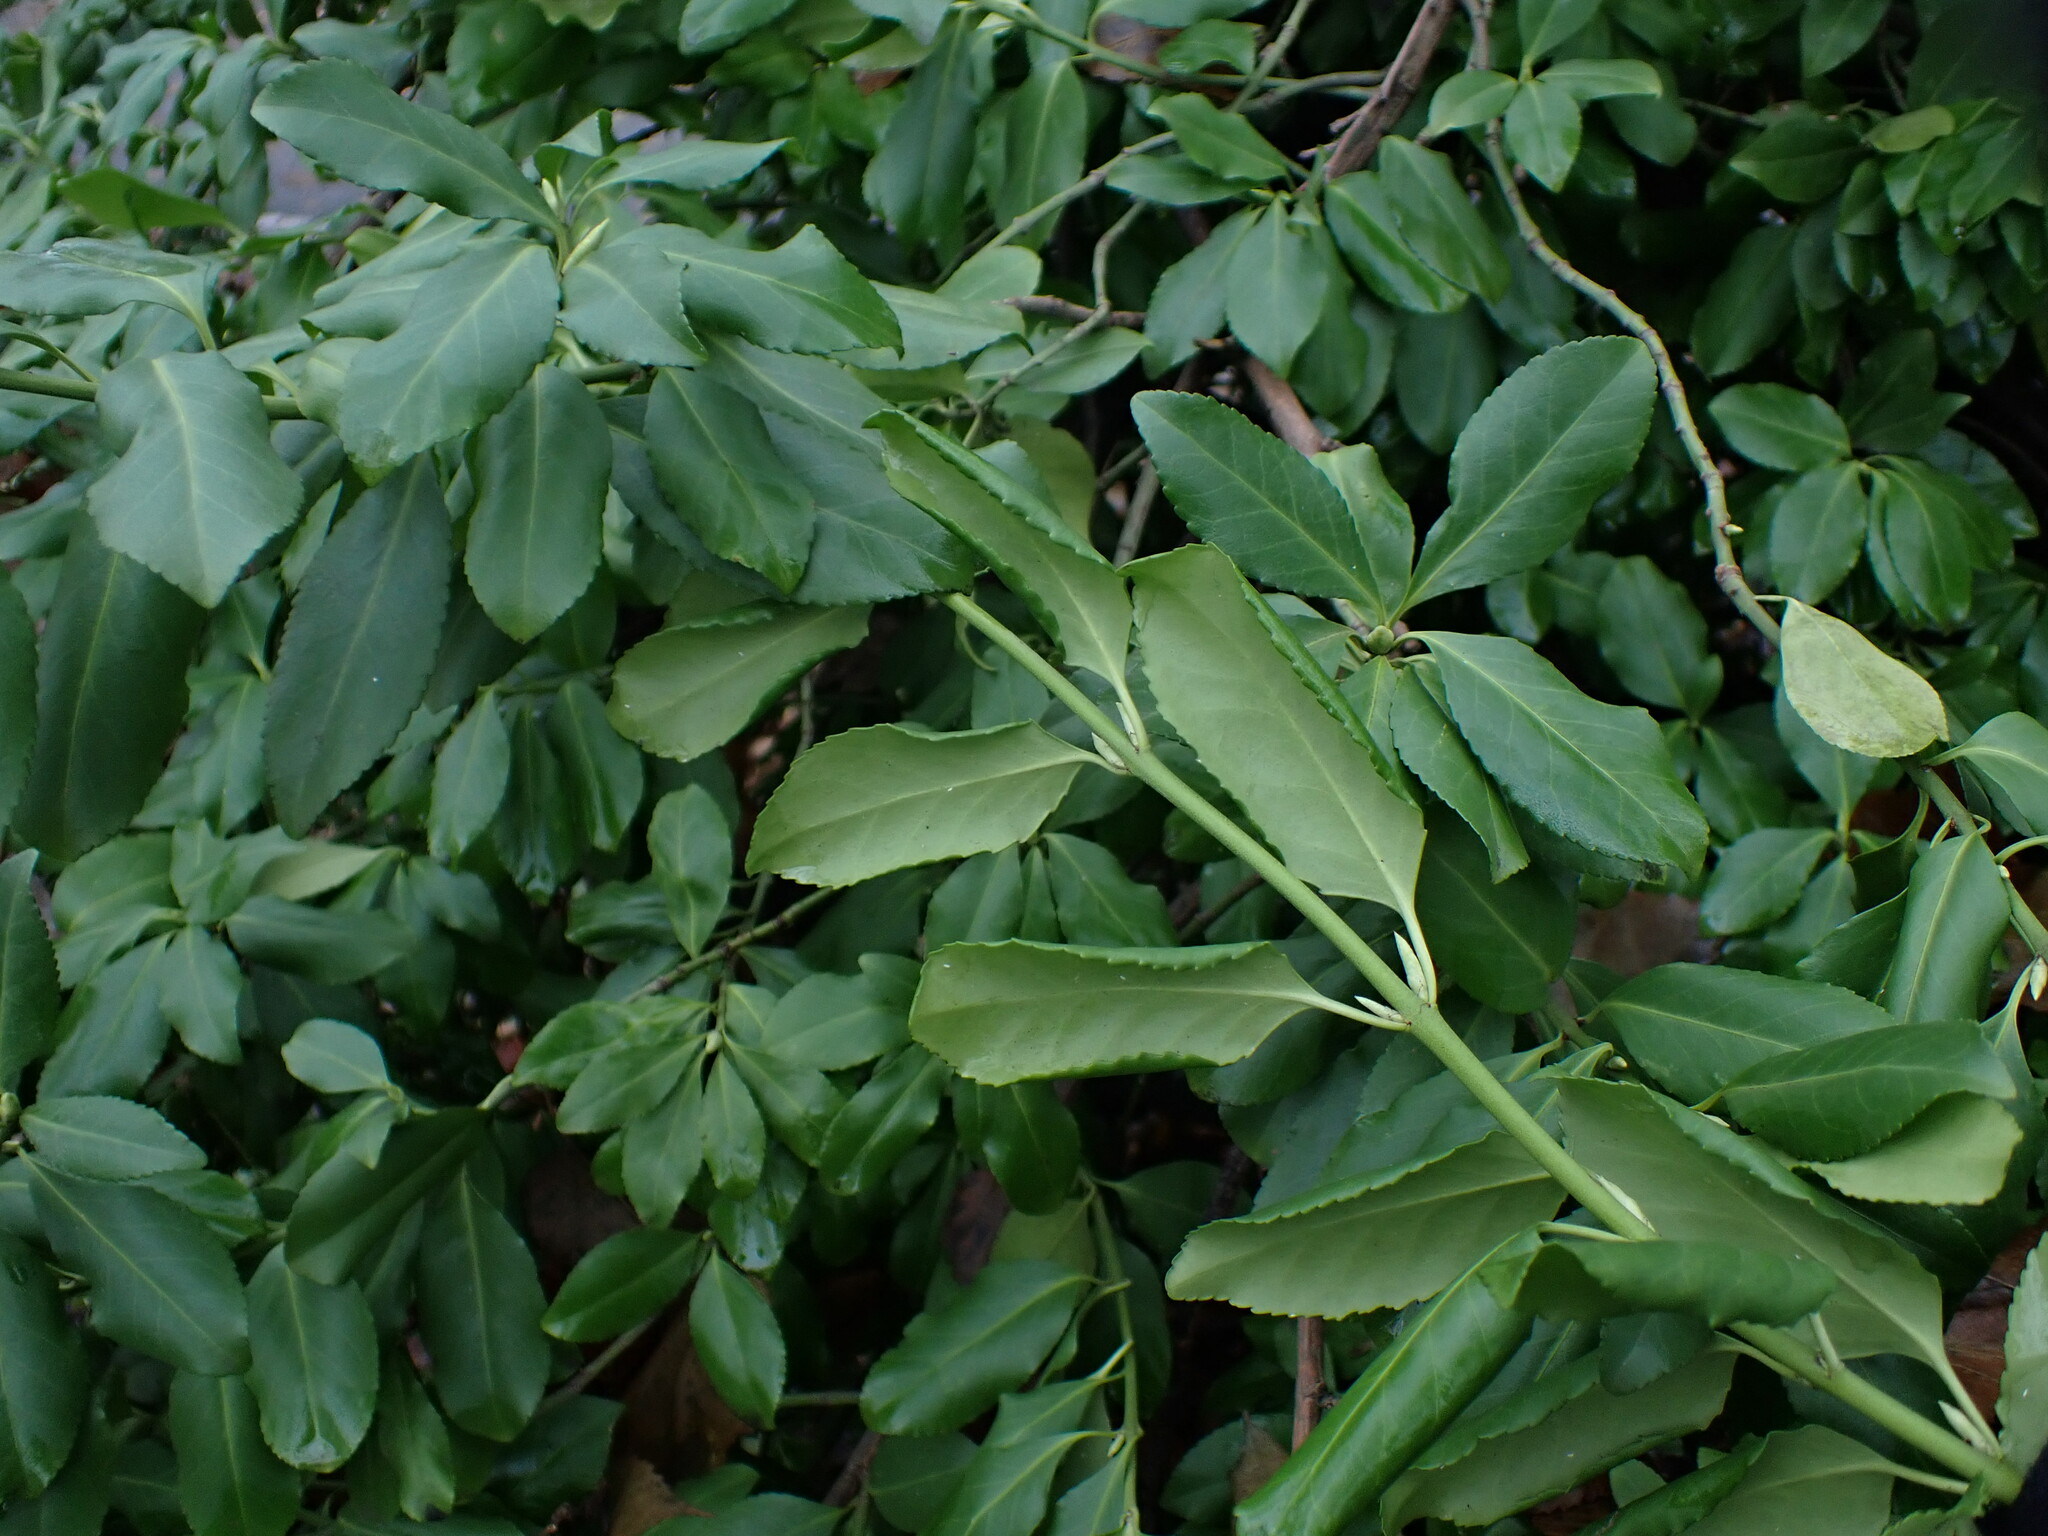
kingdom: Plantae
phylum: Tracheophyta
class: Magnoliopsida
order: Celastrales
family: Celastraceae
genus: Euonymus
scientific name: Euonymus fortunei
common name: Climbing euonymus
